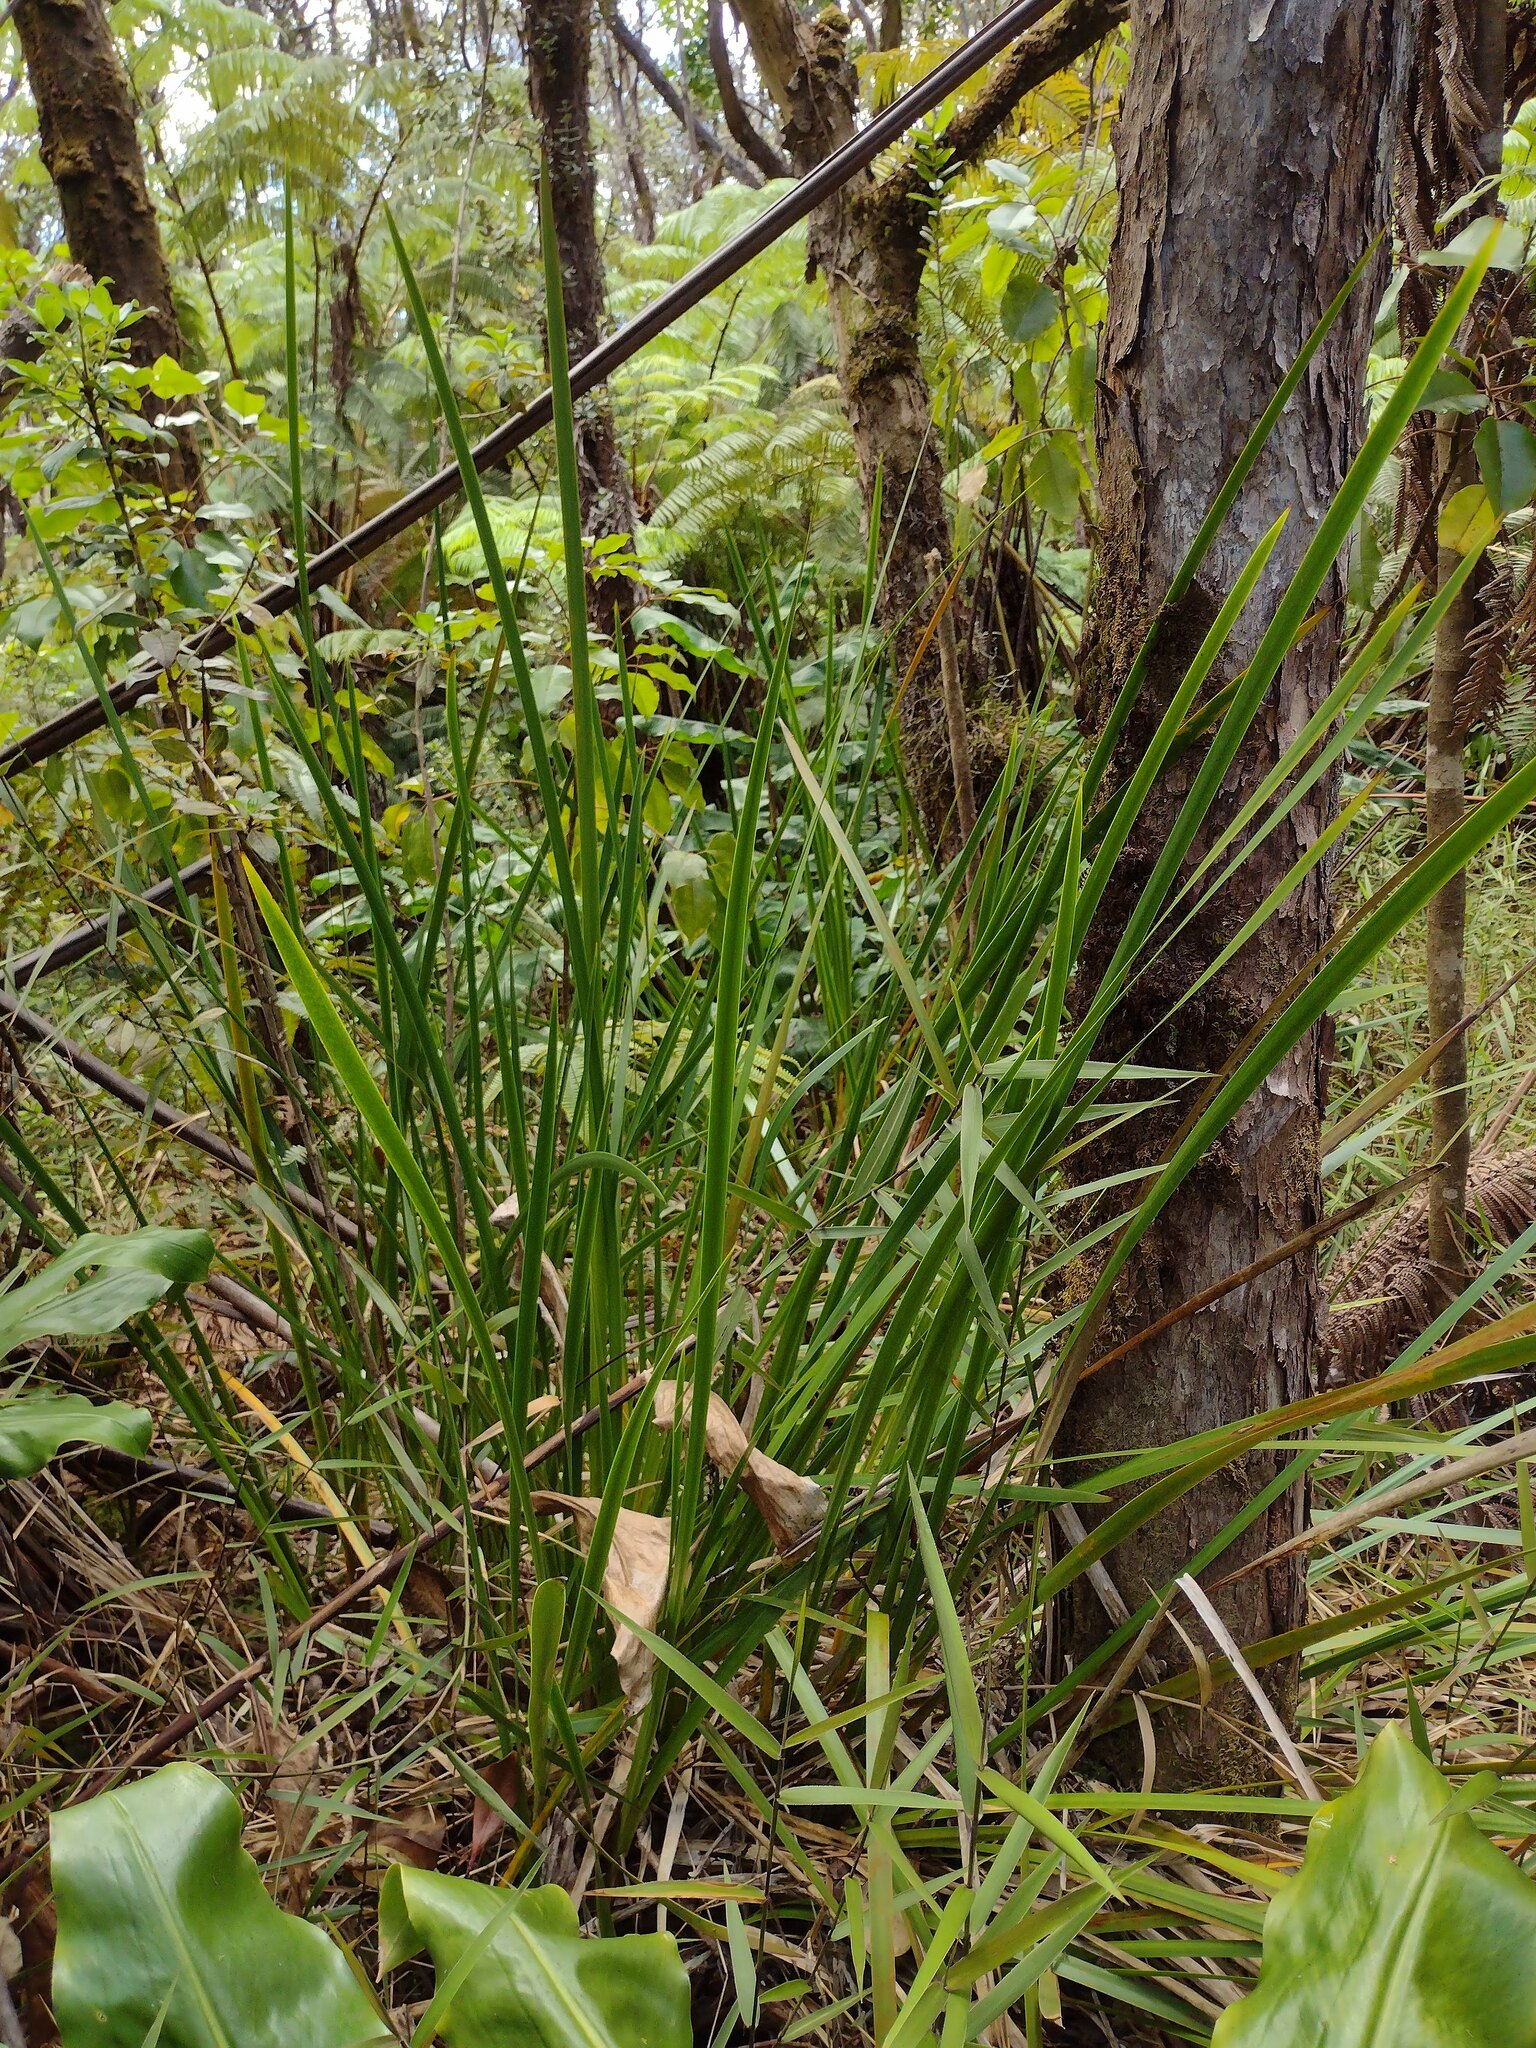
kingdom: Plantae
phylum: Tracheophyta
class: Liliopsida
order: Poales
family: Cyperaceae
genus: Machaerina
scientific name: Machaerina angustifolia
